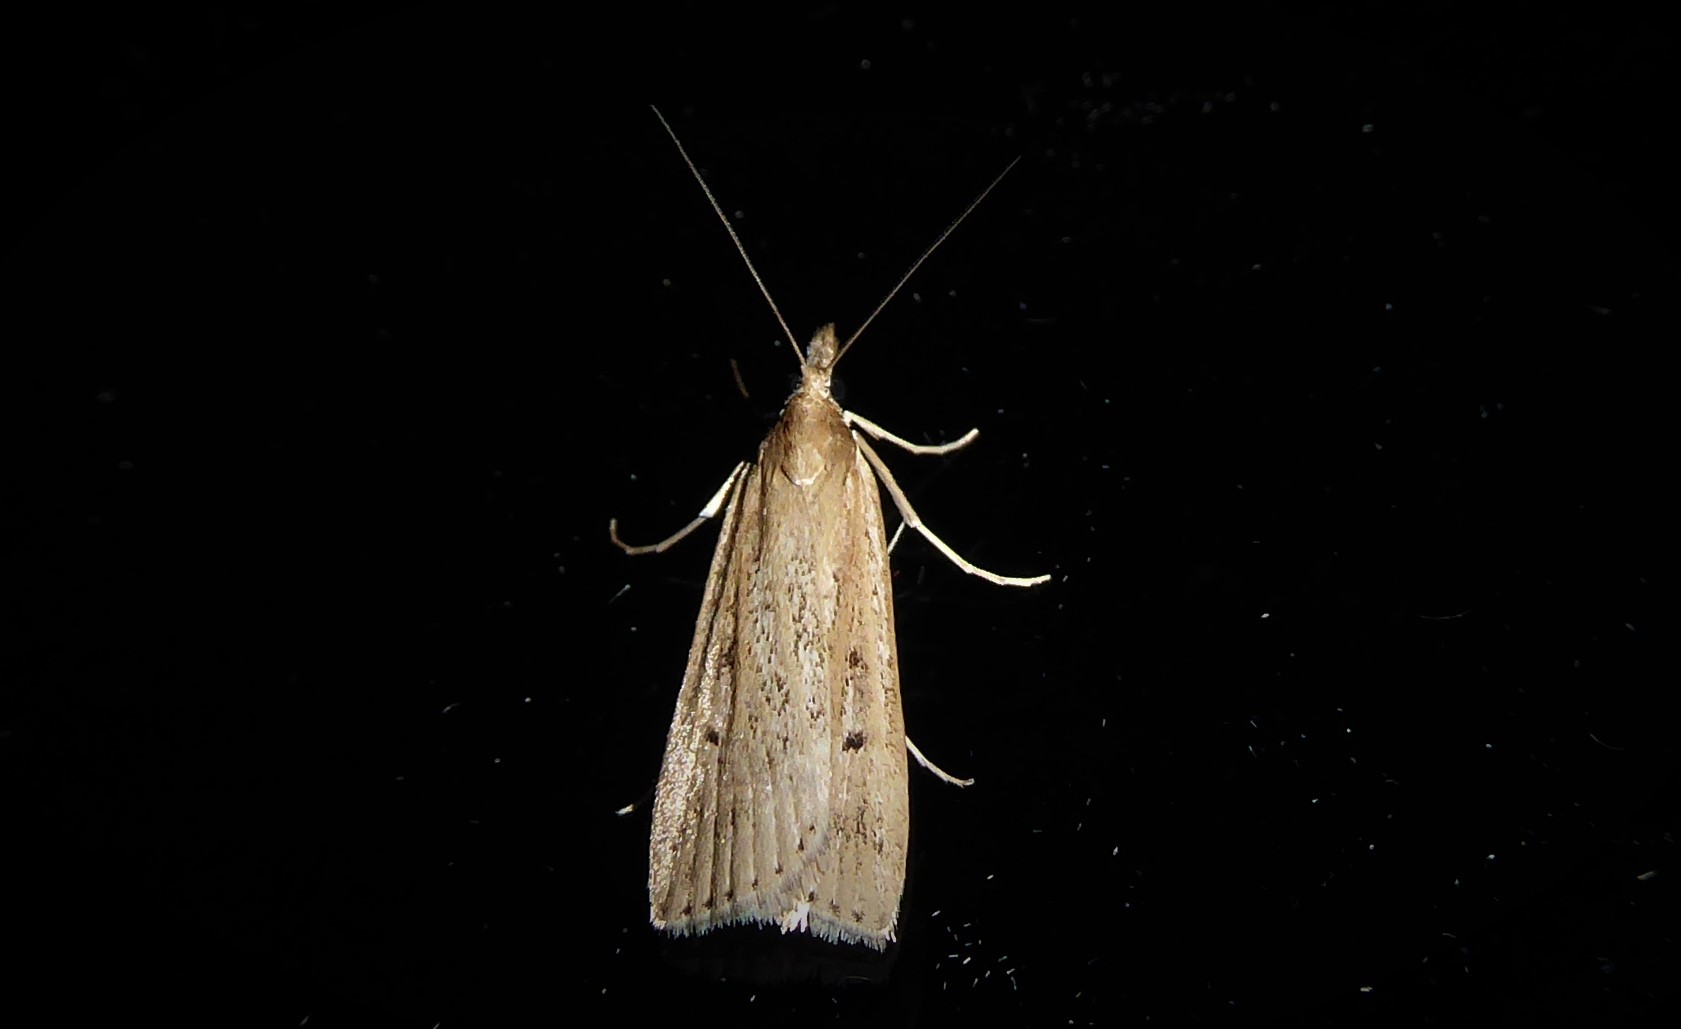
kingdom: Animalia
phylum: Arthropoda
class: Insecta
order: Lepidoptera
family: Crambidae
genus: Eudonia
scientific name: Eudonia sabulosella
